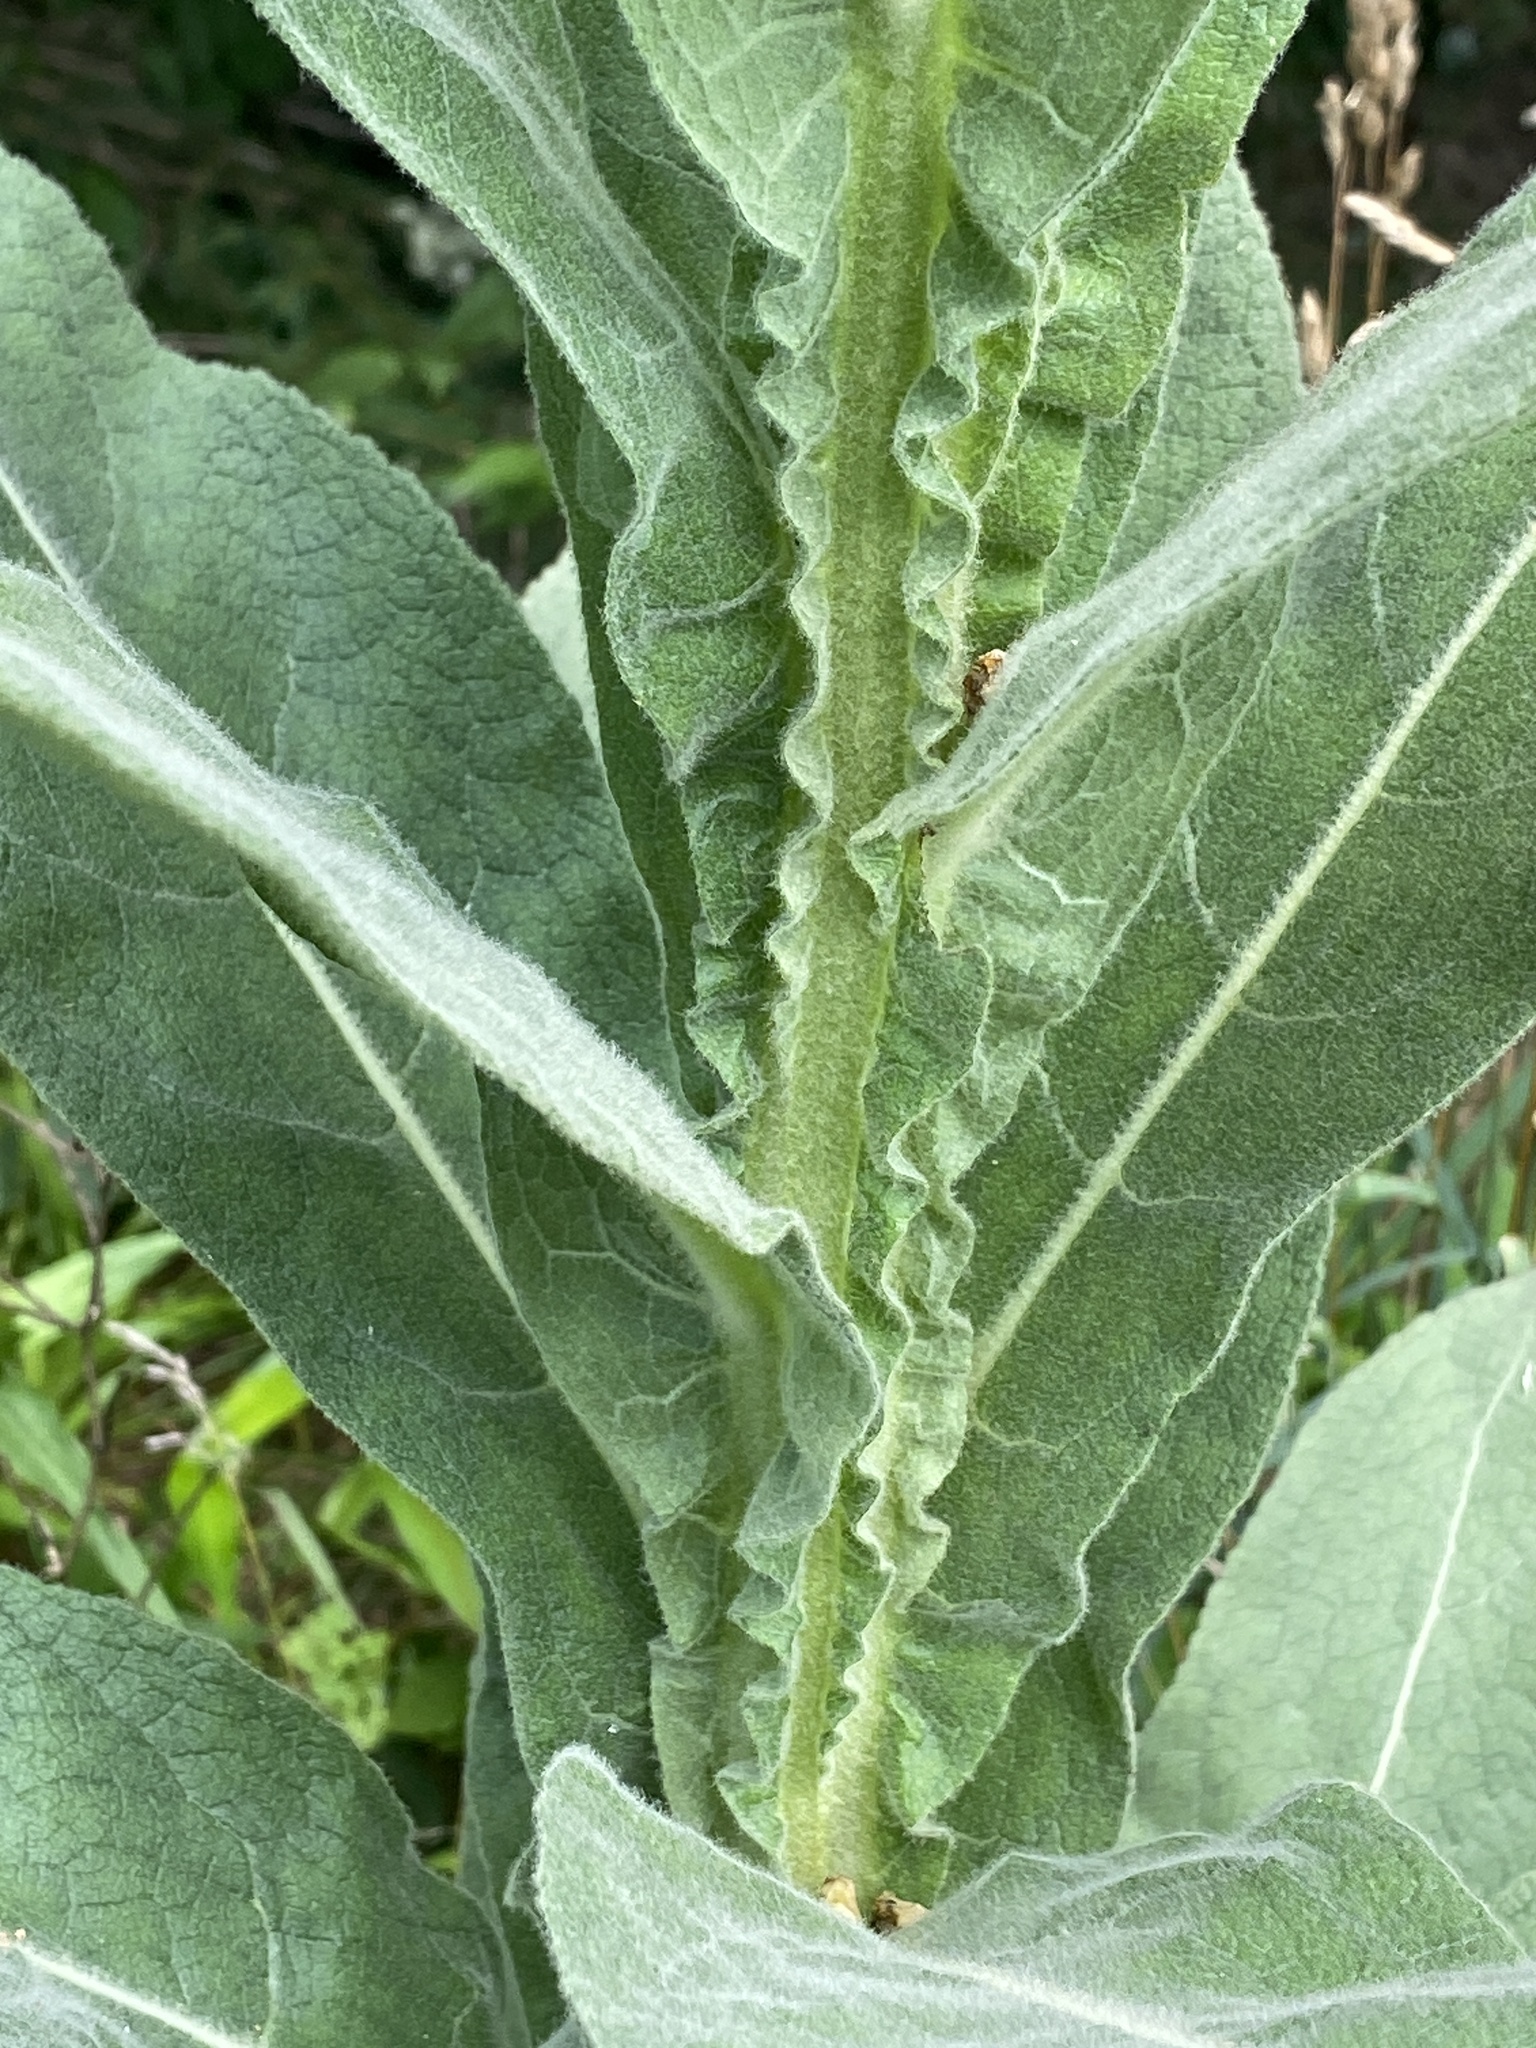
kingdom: Plantae
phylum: Tracheophyta
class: Magnoliopsida
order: Lamiales
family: Scrophulariaceae
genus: Verbascum
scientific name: Verbascum thapsus
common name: Common mullein
